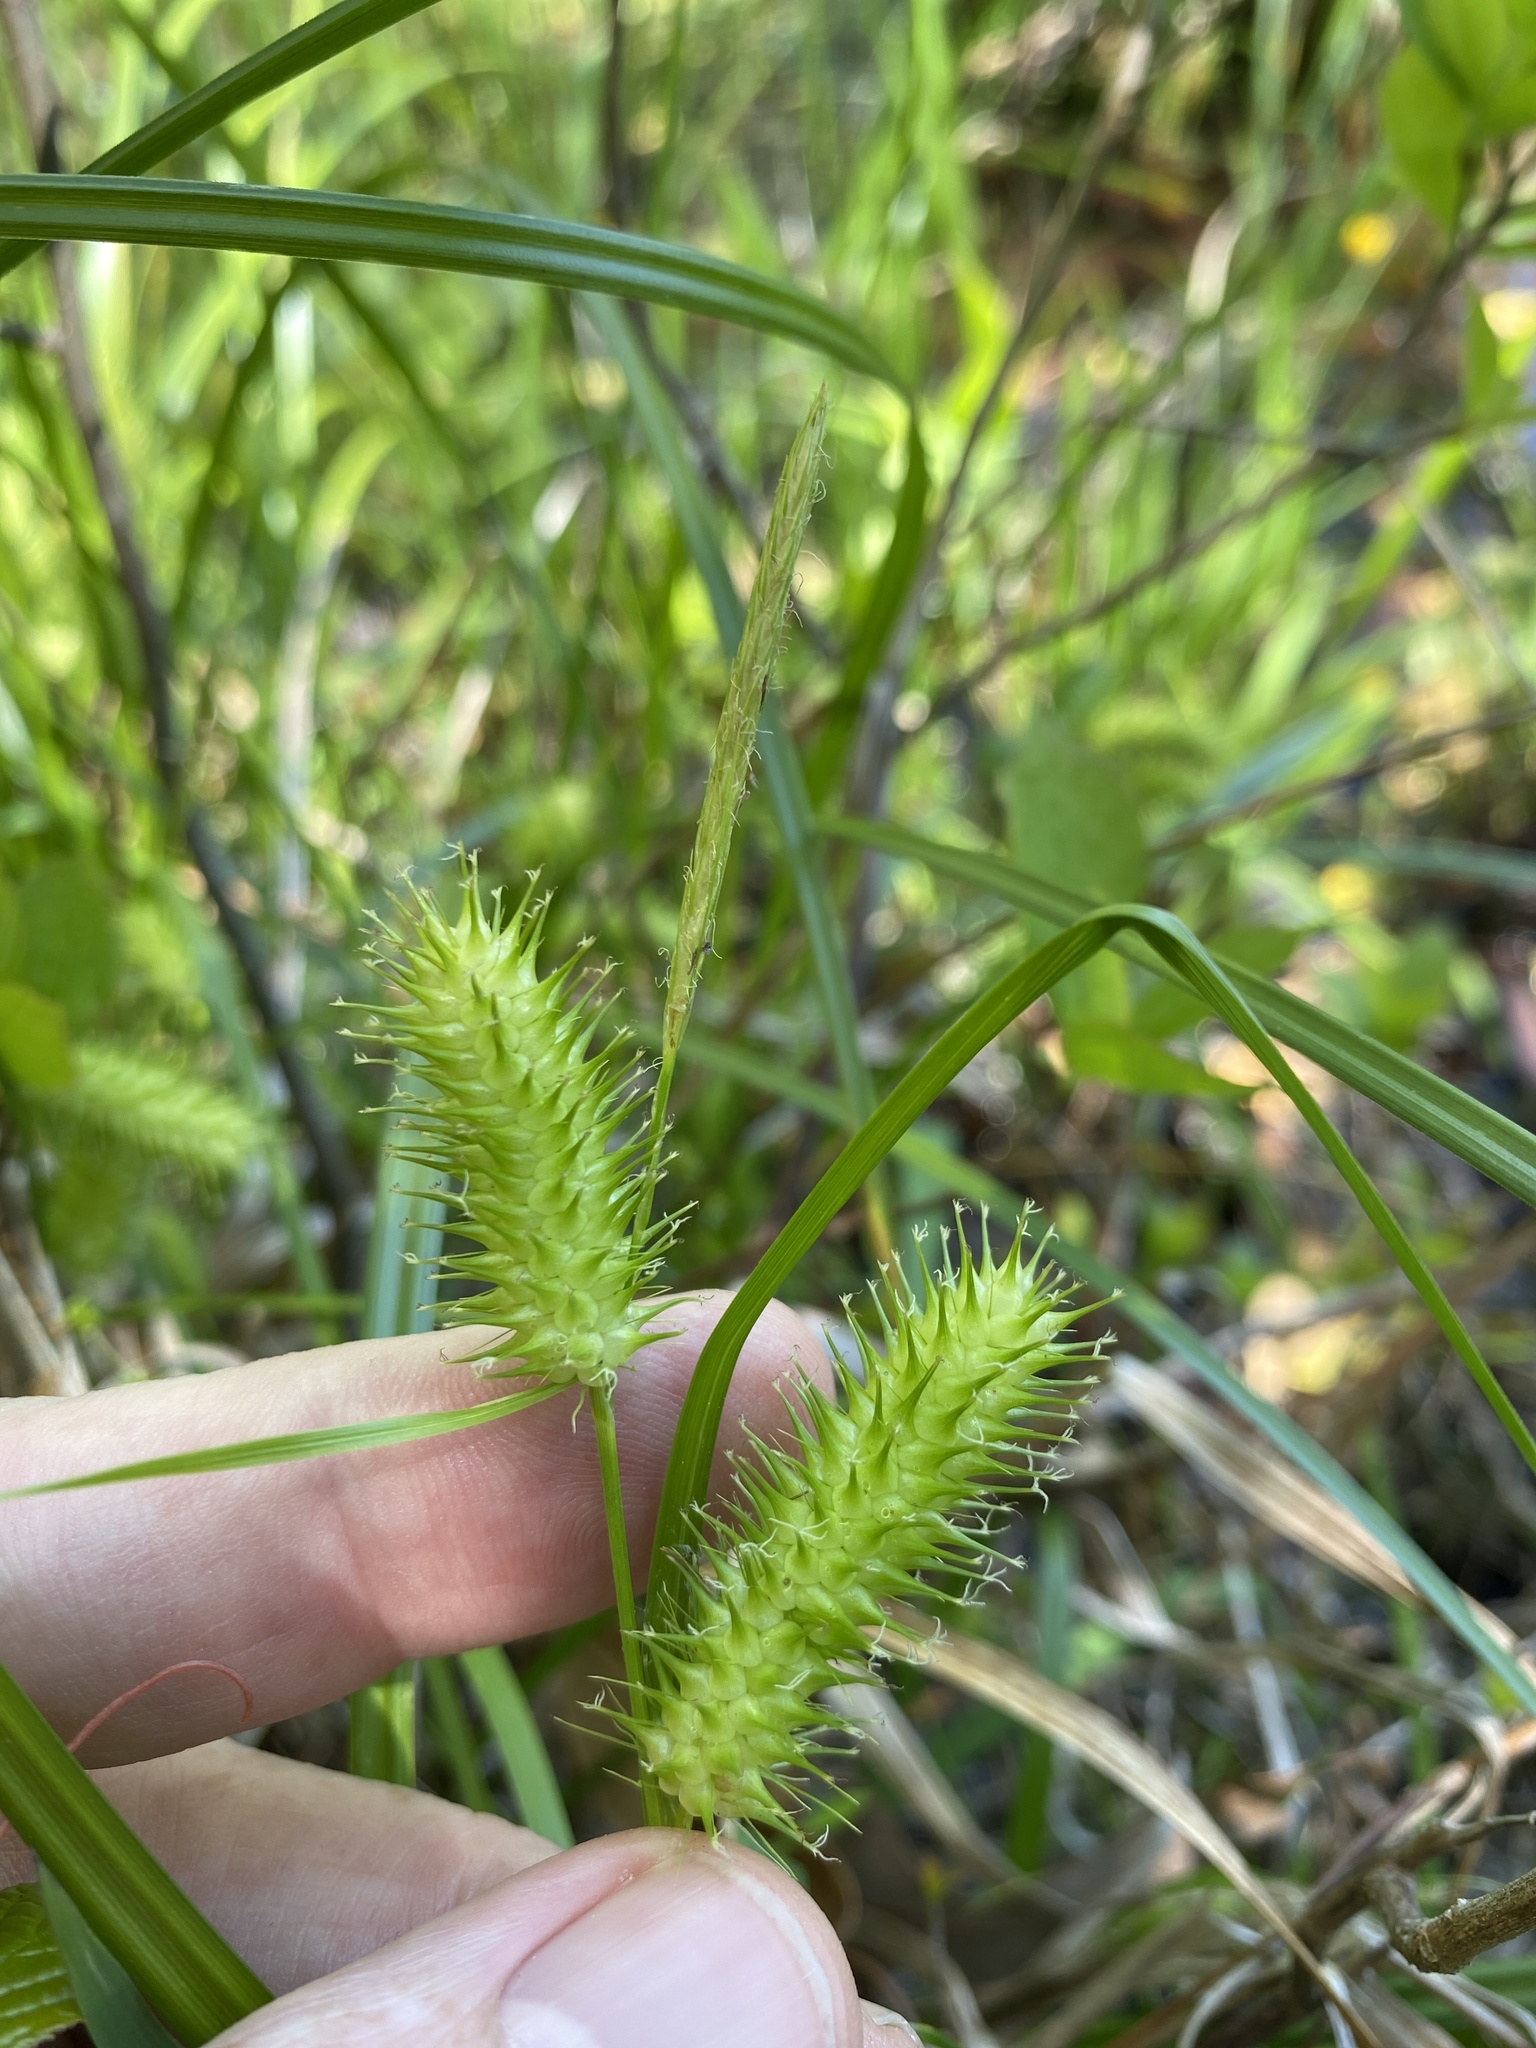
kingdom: Plantae
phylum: Tracheophyta
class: Liliopsida
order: Poales
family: Cyperaceae
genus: Carex
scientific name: Carex lurida
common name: Sallow sedge
